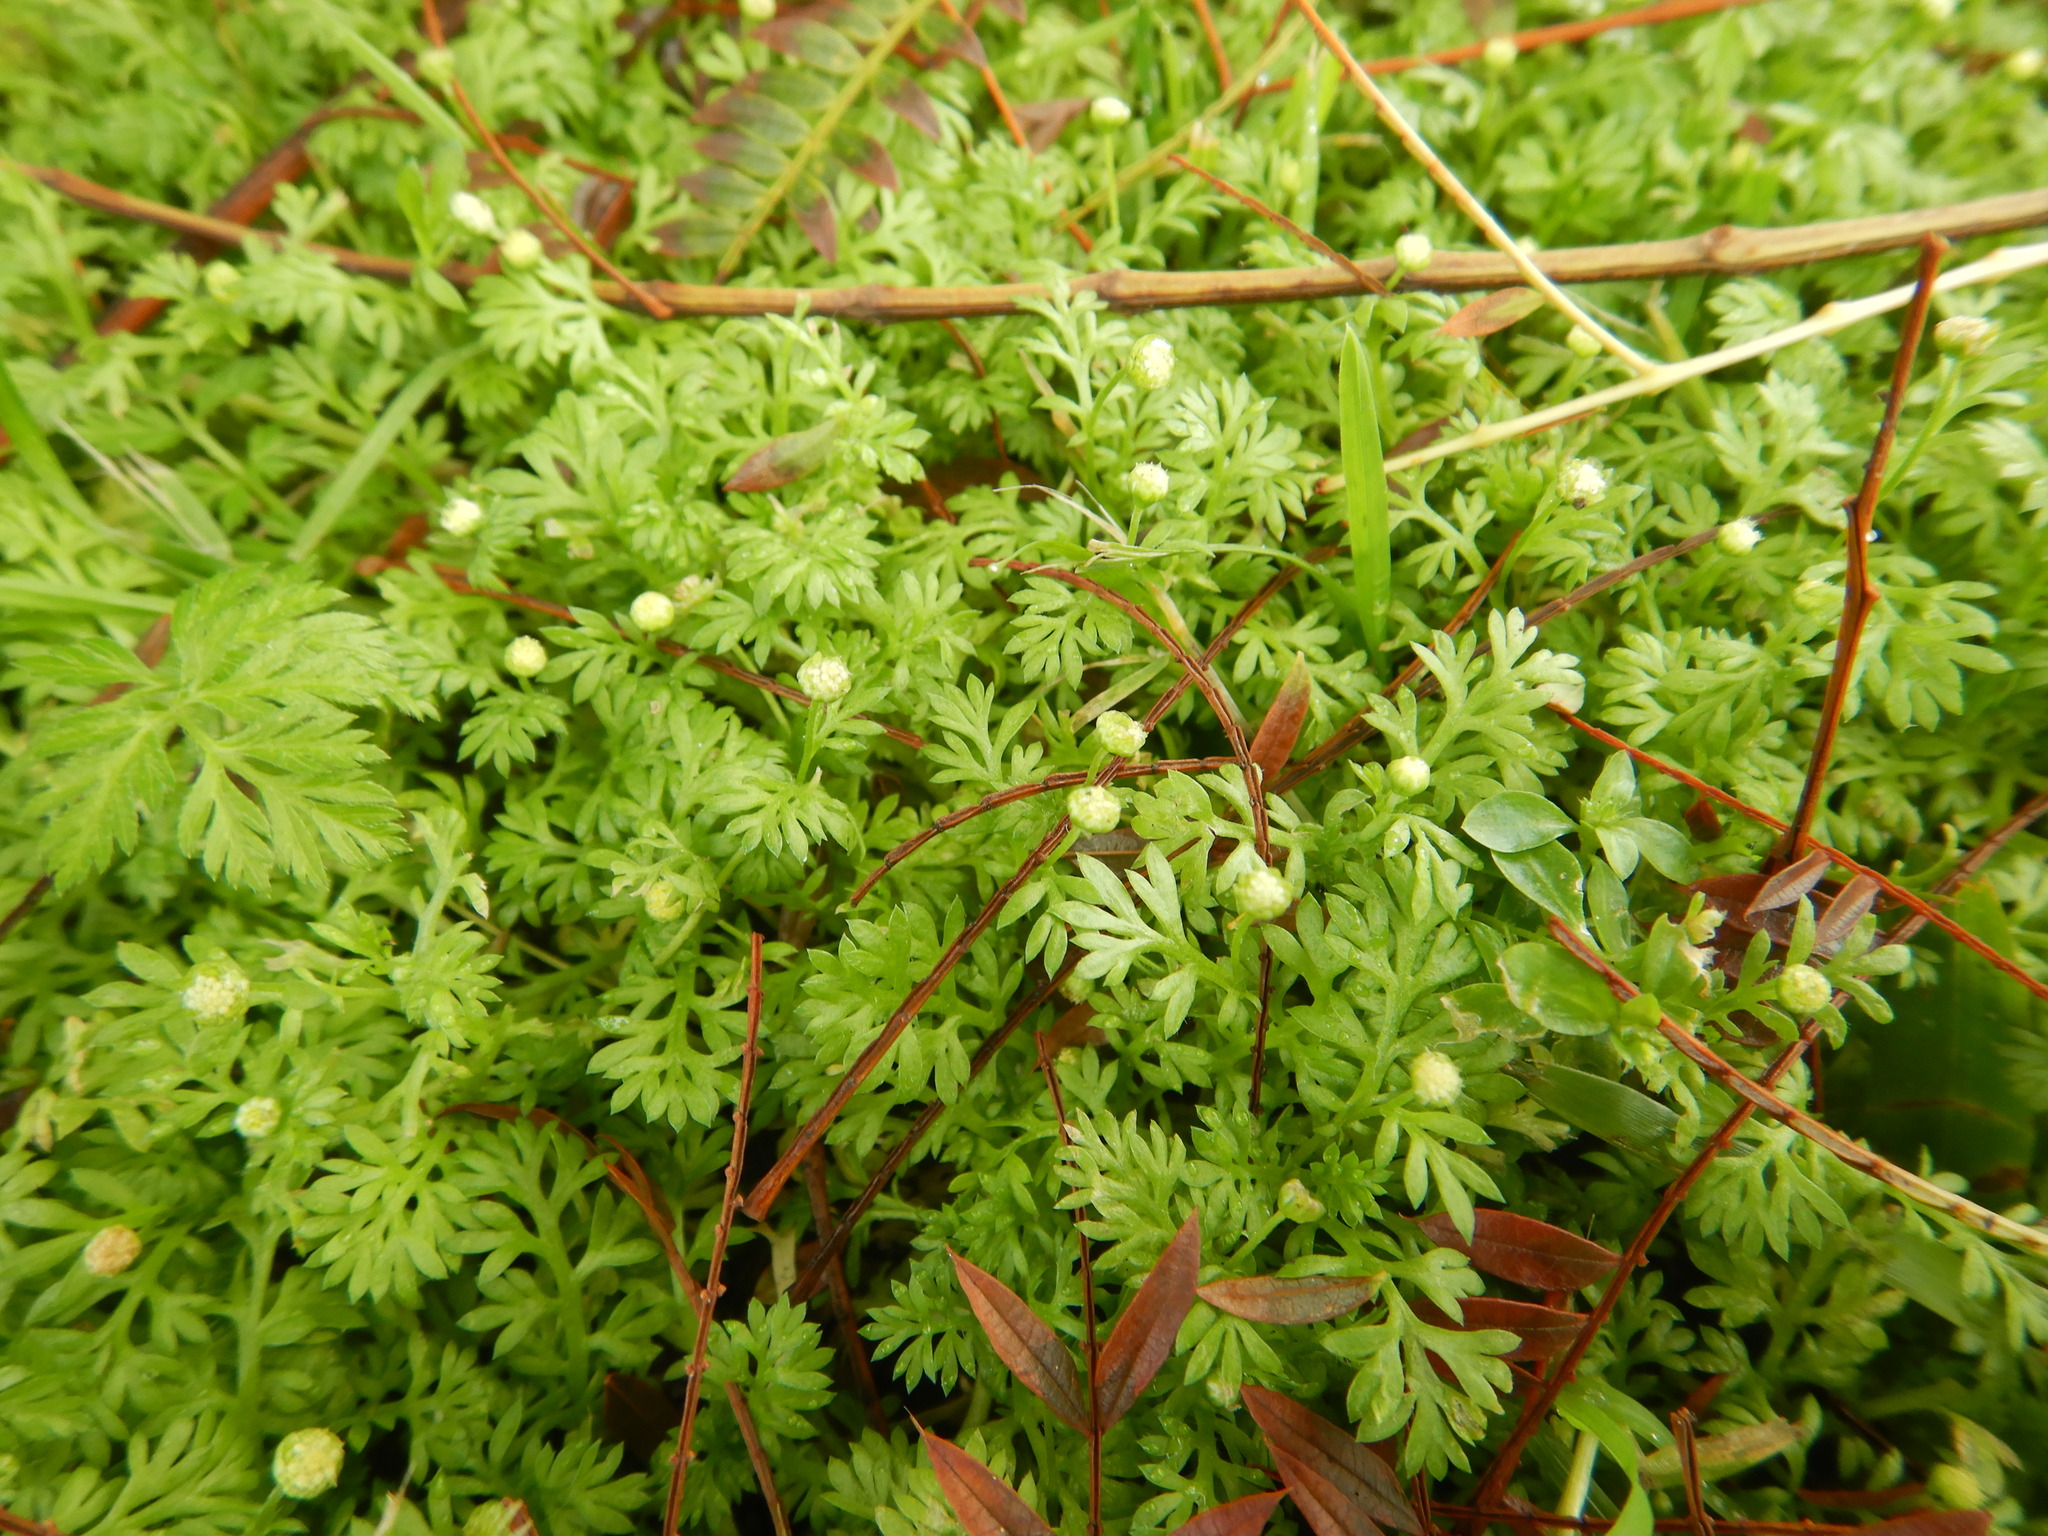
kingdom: Plantae
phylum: Tracheophyta
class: Magnoliopsida
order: Asterales
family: Asteraceae
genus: Cotula
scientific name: Cotula australis
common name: Australian waterbuttons
